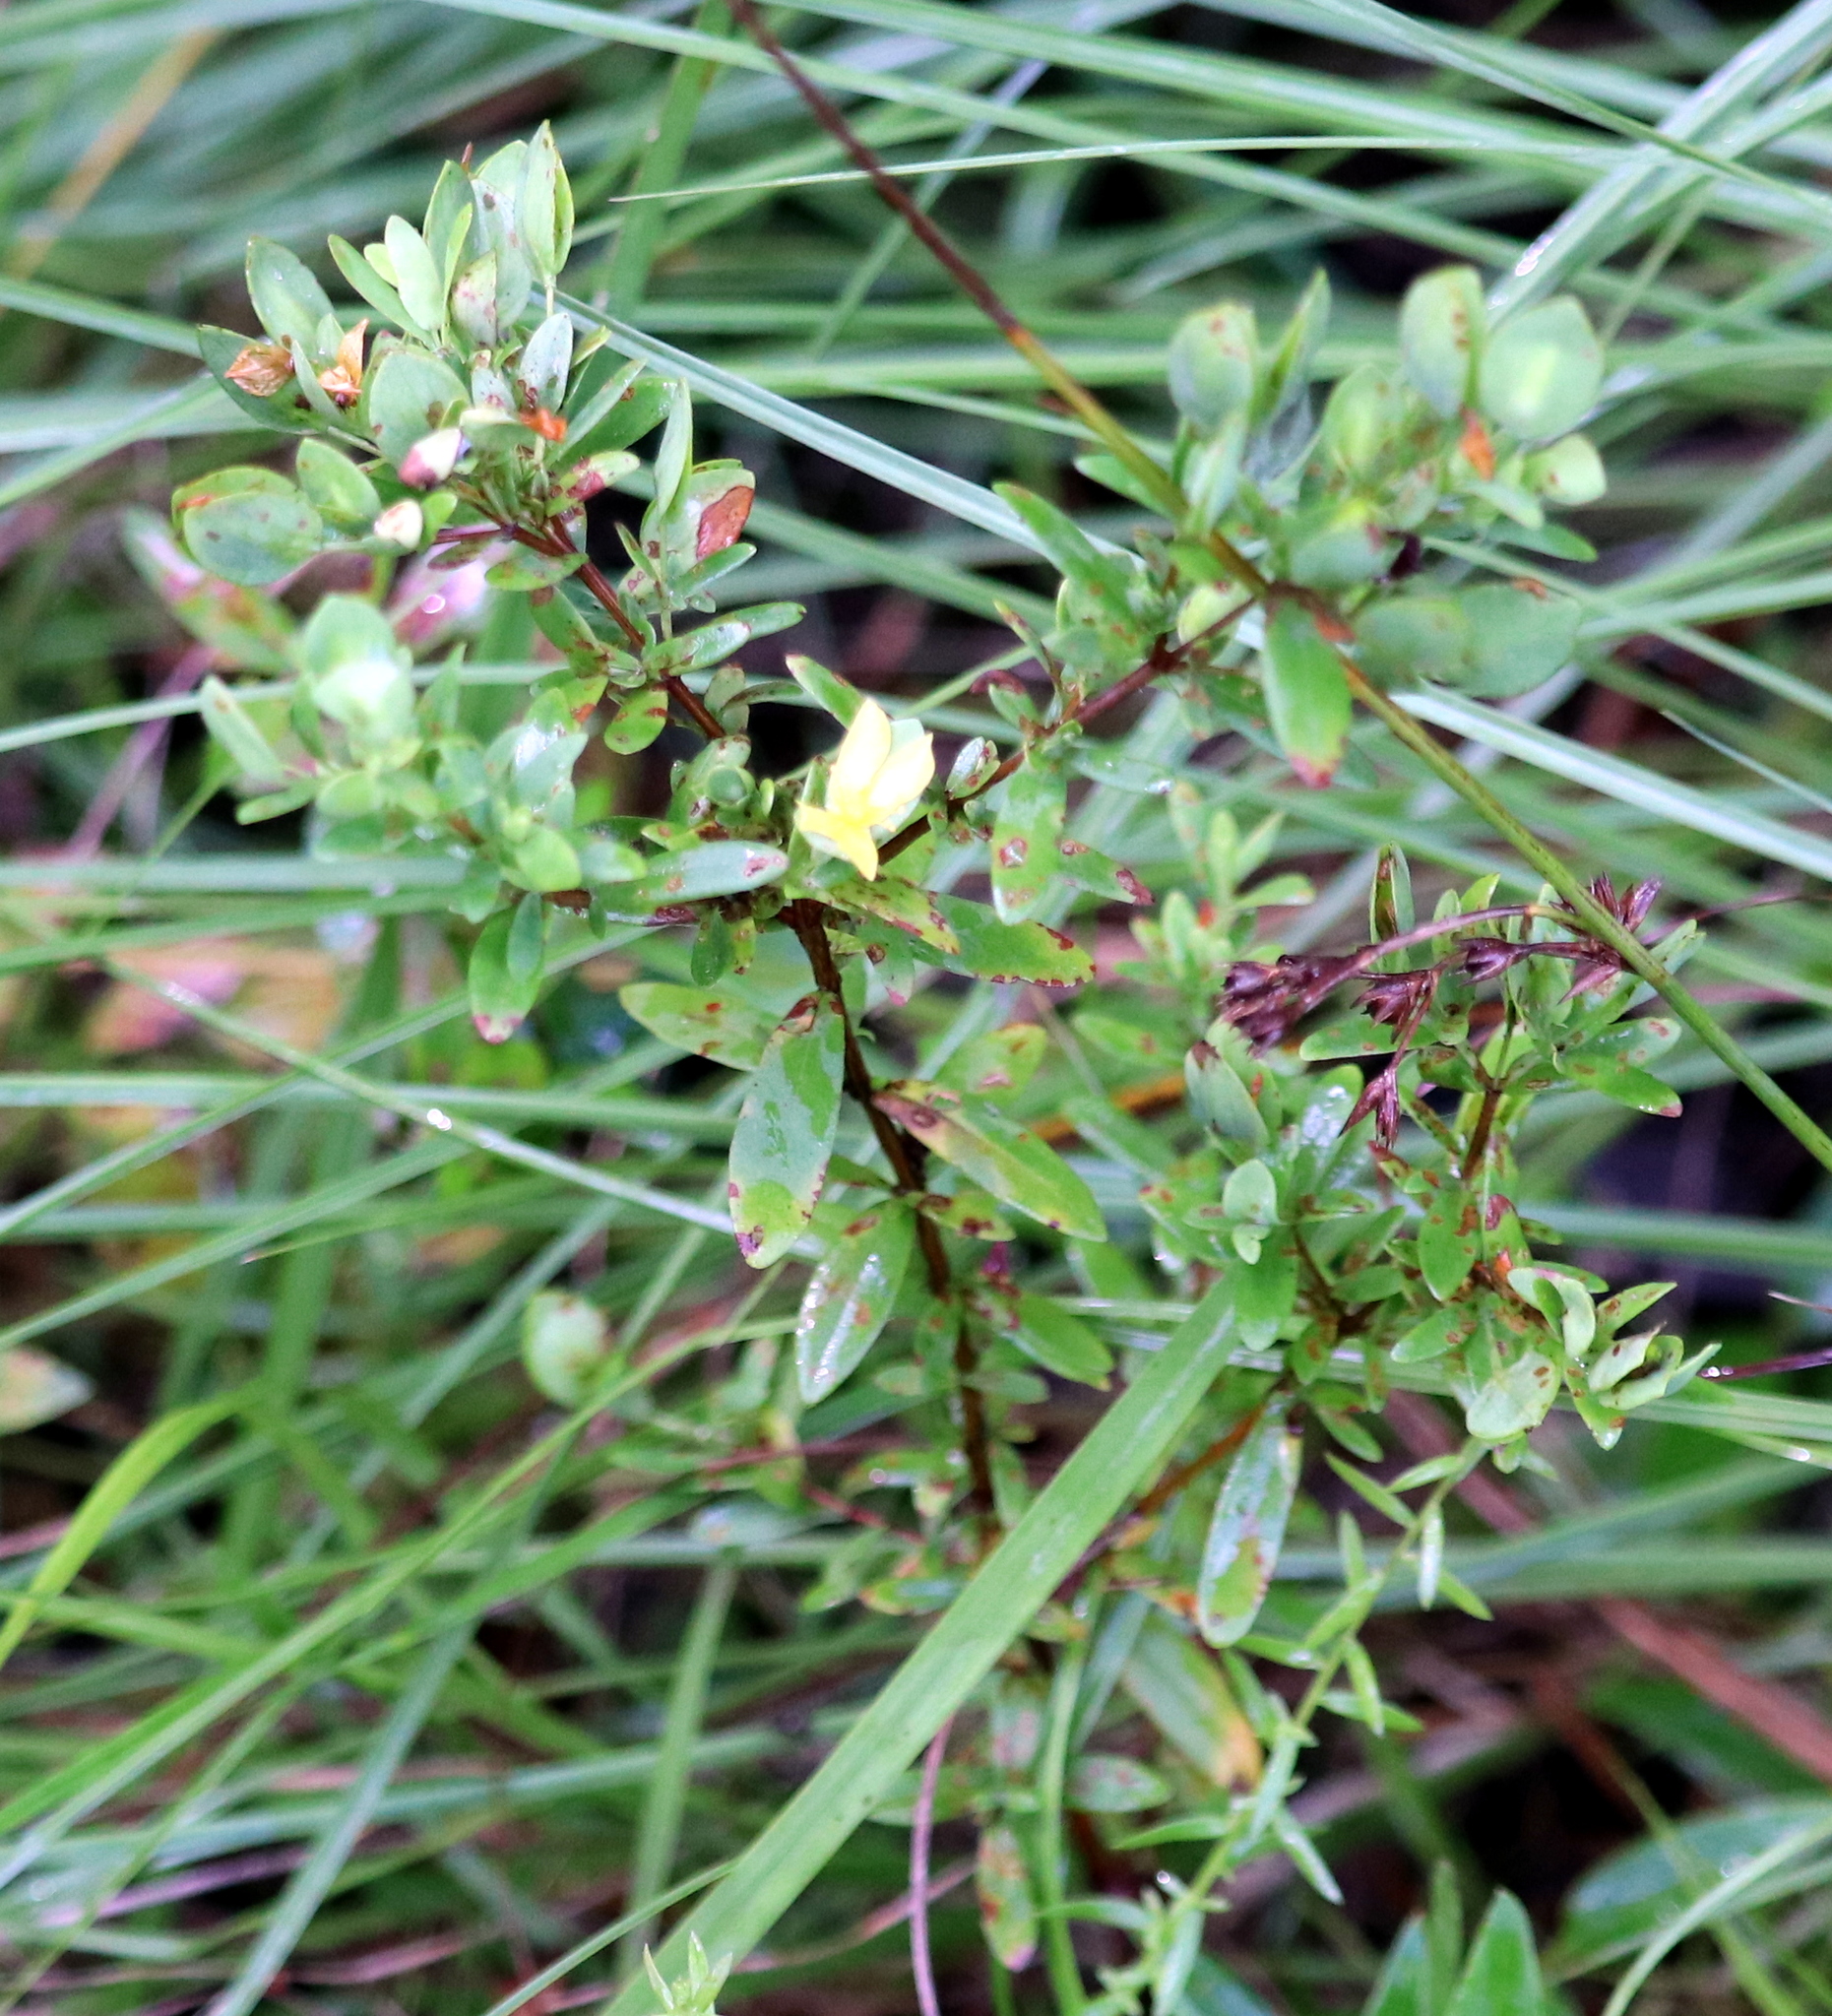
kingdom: Plantae
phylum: Tracheophyta
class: Magnoliopsida
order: Malpighiales
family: Hypericaceae
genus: Hypericum
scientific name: Hypericum hypericoides
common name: St. andrew's cross
